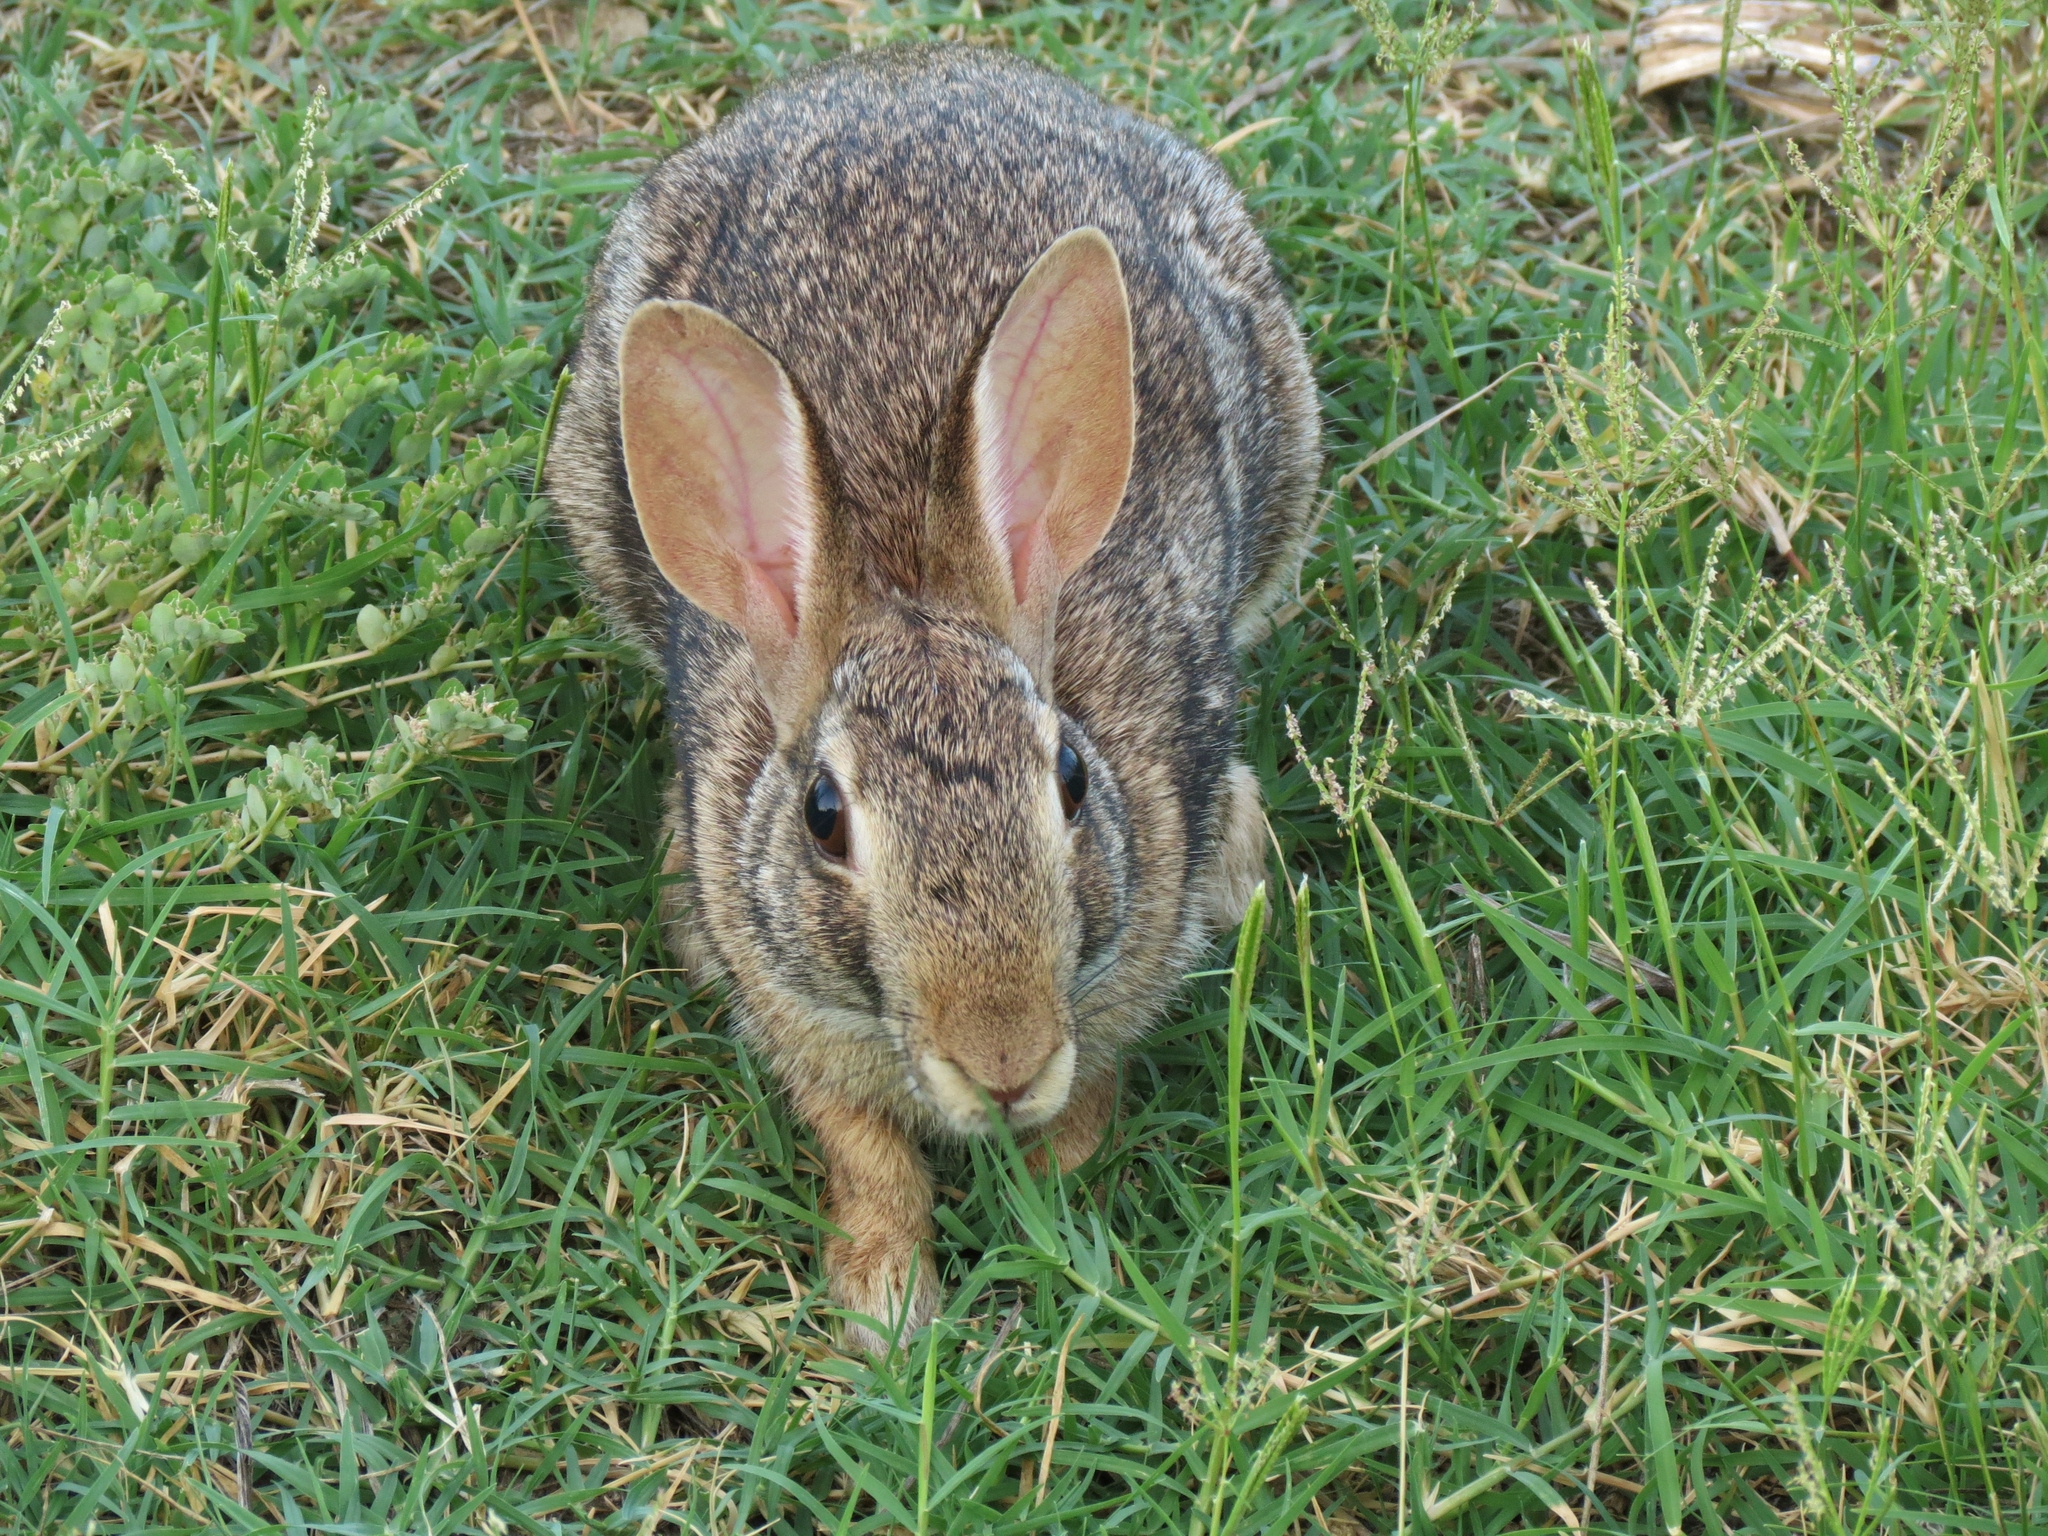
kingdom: Animalia
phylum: Chordata
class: Mammalia
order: Lagomorpha
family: Leporidae
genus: Sylvilagus
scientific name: Sylvilagus floridanus
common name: Eastern cottontail
